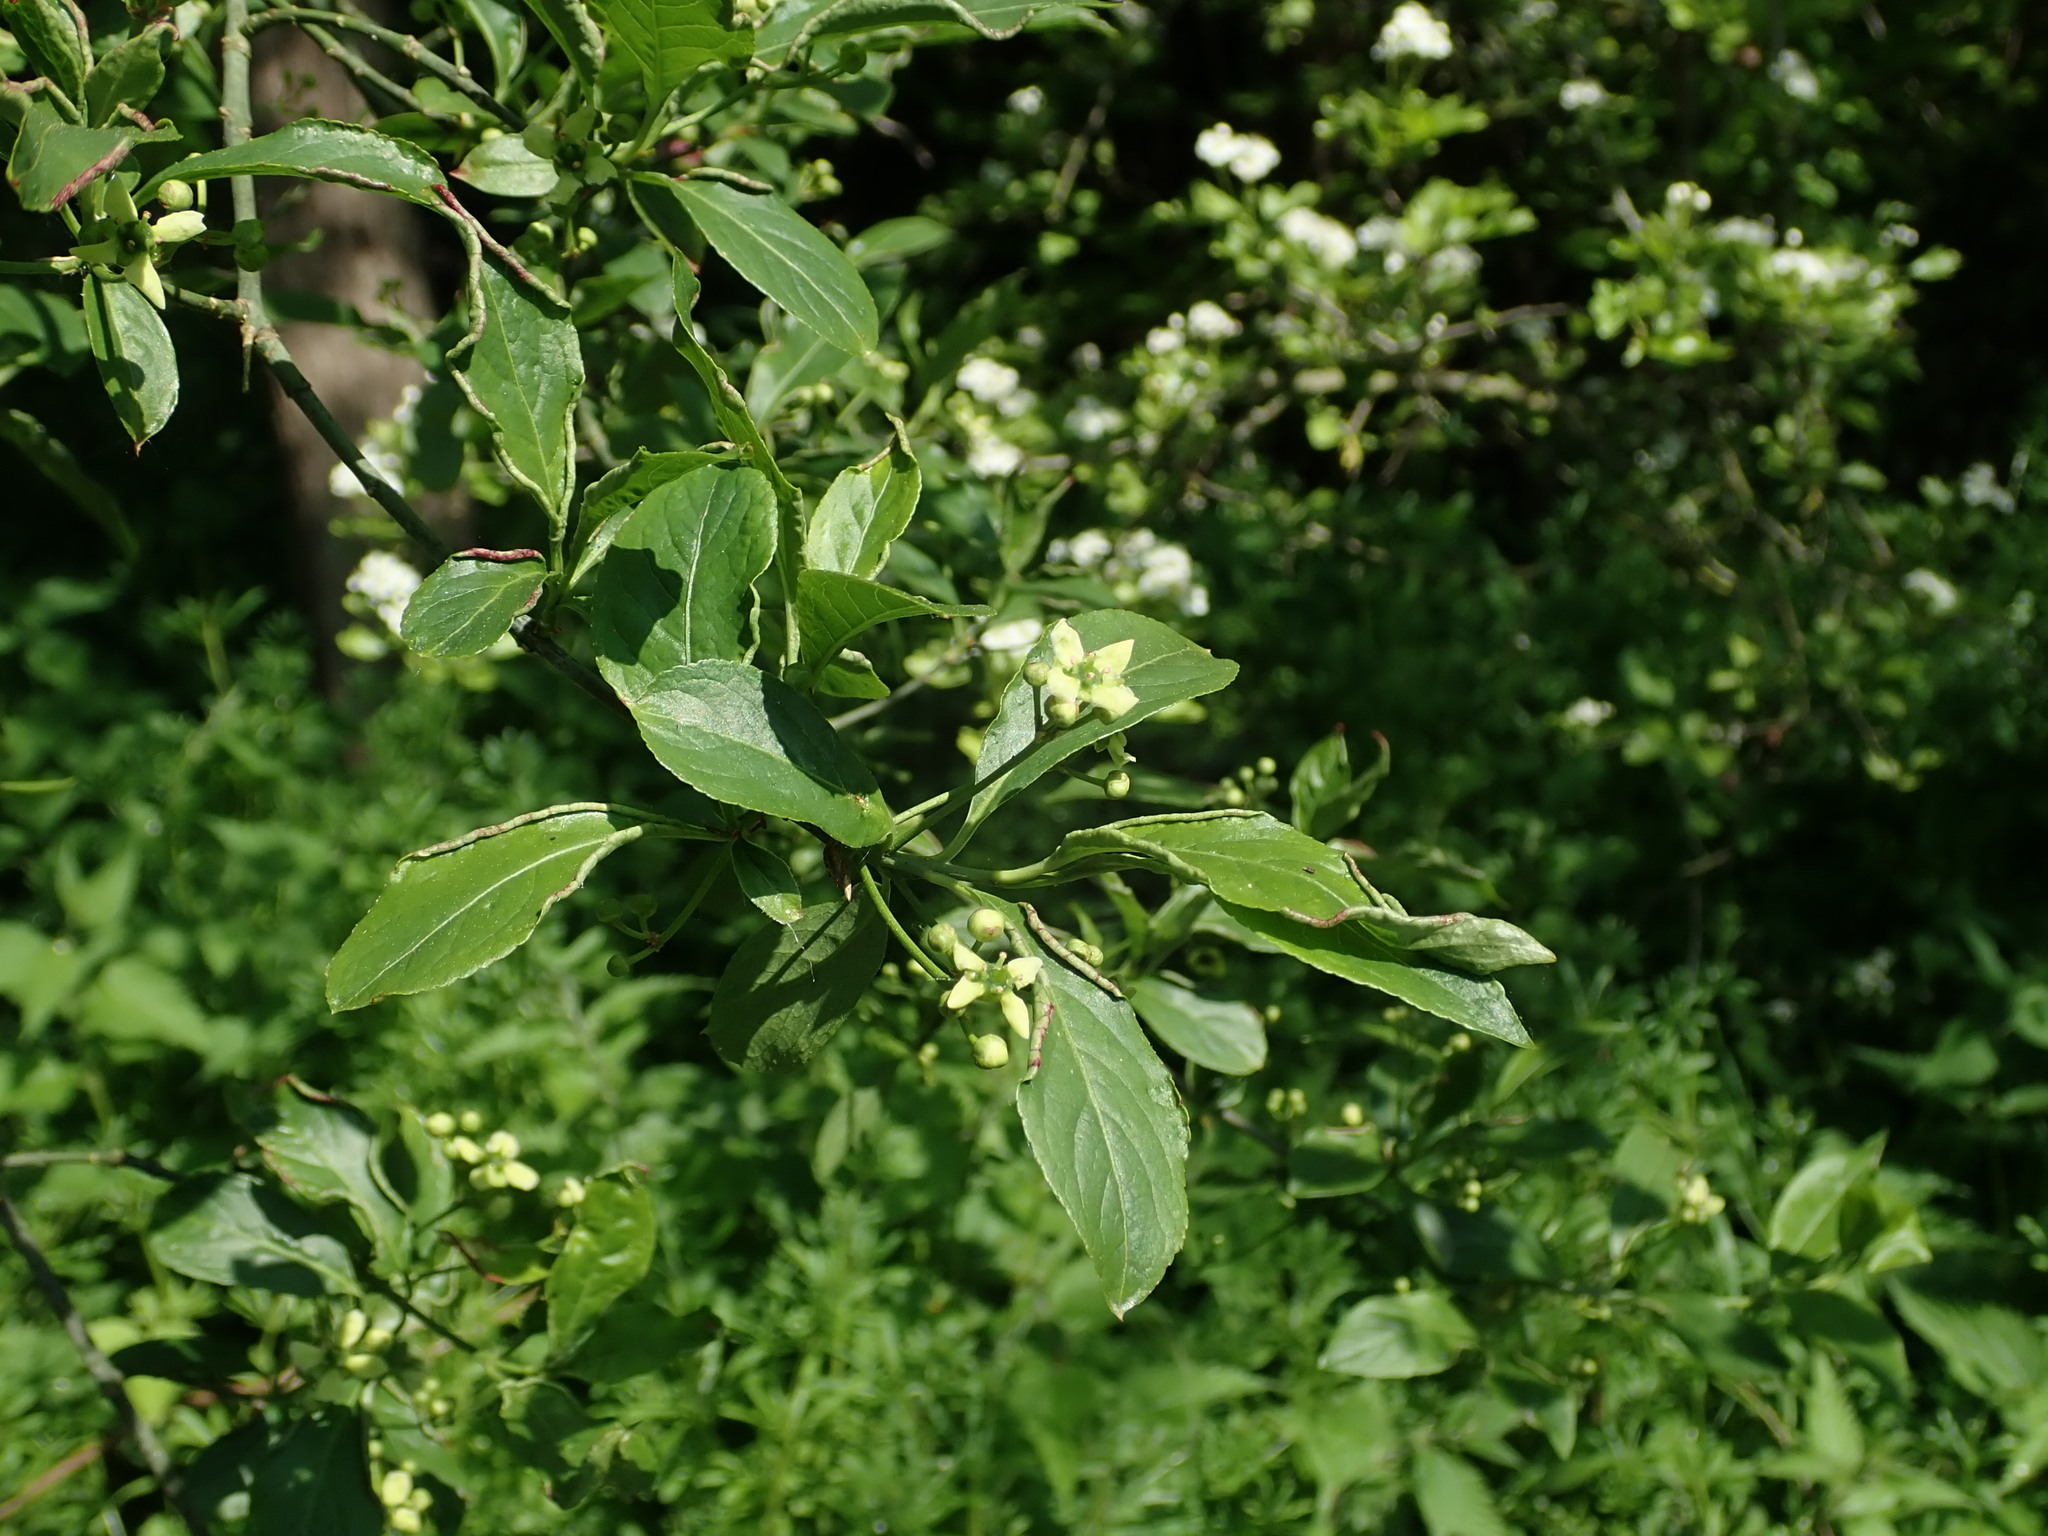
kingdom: Plantae
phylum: Tracheophyta
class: Magnoliopsida
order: Celastrales
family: Celastraceae
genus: Euonymus
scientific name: Euonymus europaeus
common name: Spindle
